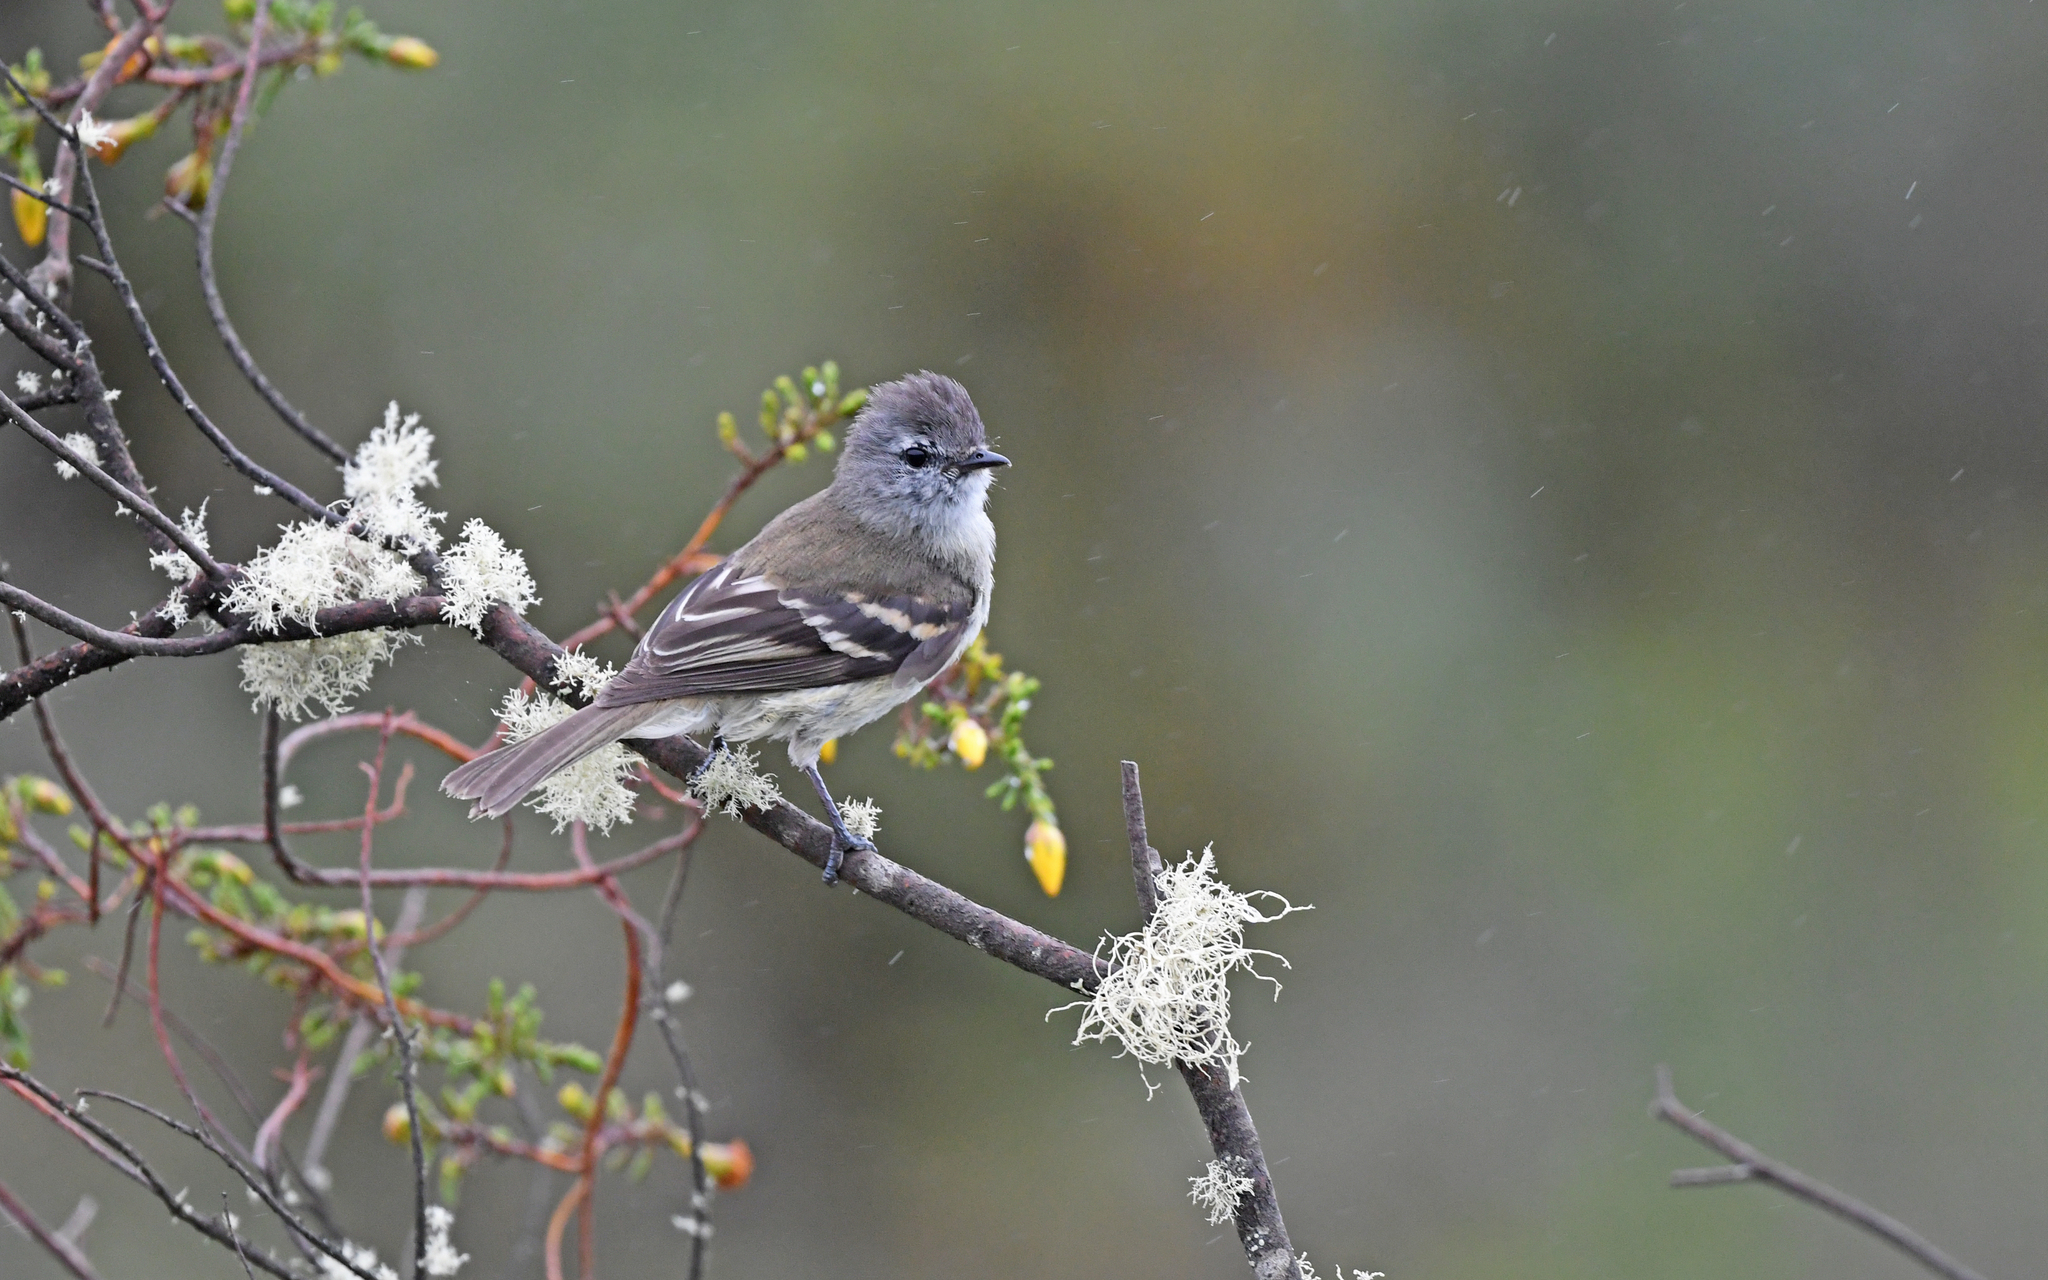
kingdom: Animalia
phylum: Chordata
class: Aves
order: Passeriformes
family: Tyrannidae
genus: Mecocerculus
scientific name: Mecocerculus leucophrys
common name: White-throated tyrannulet
